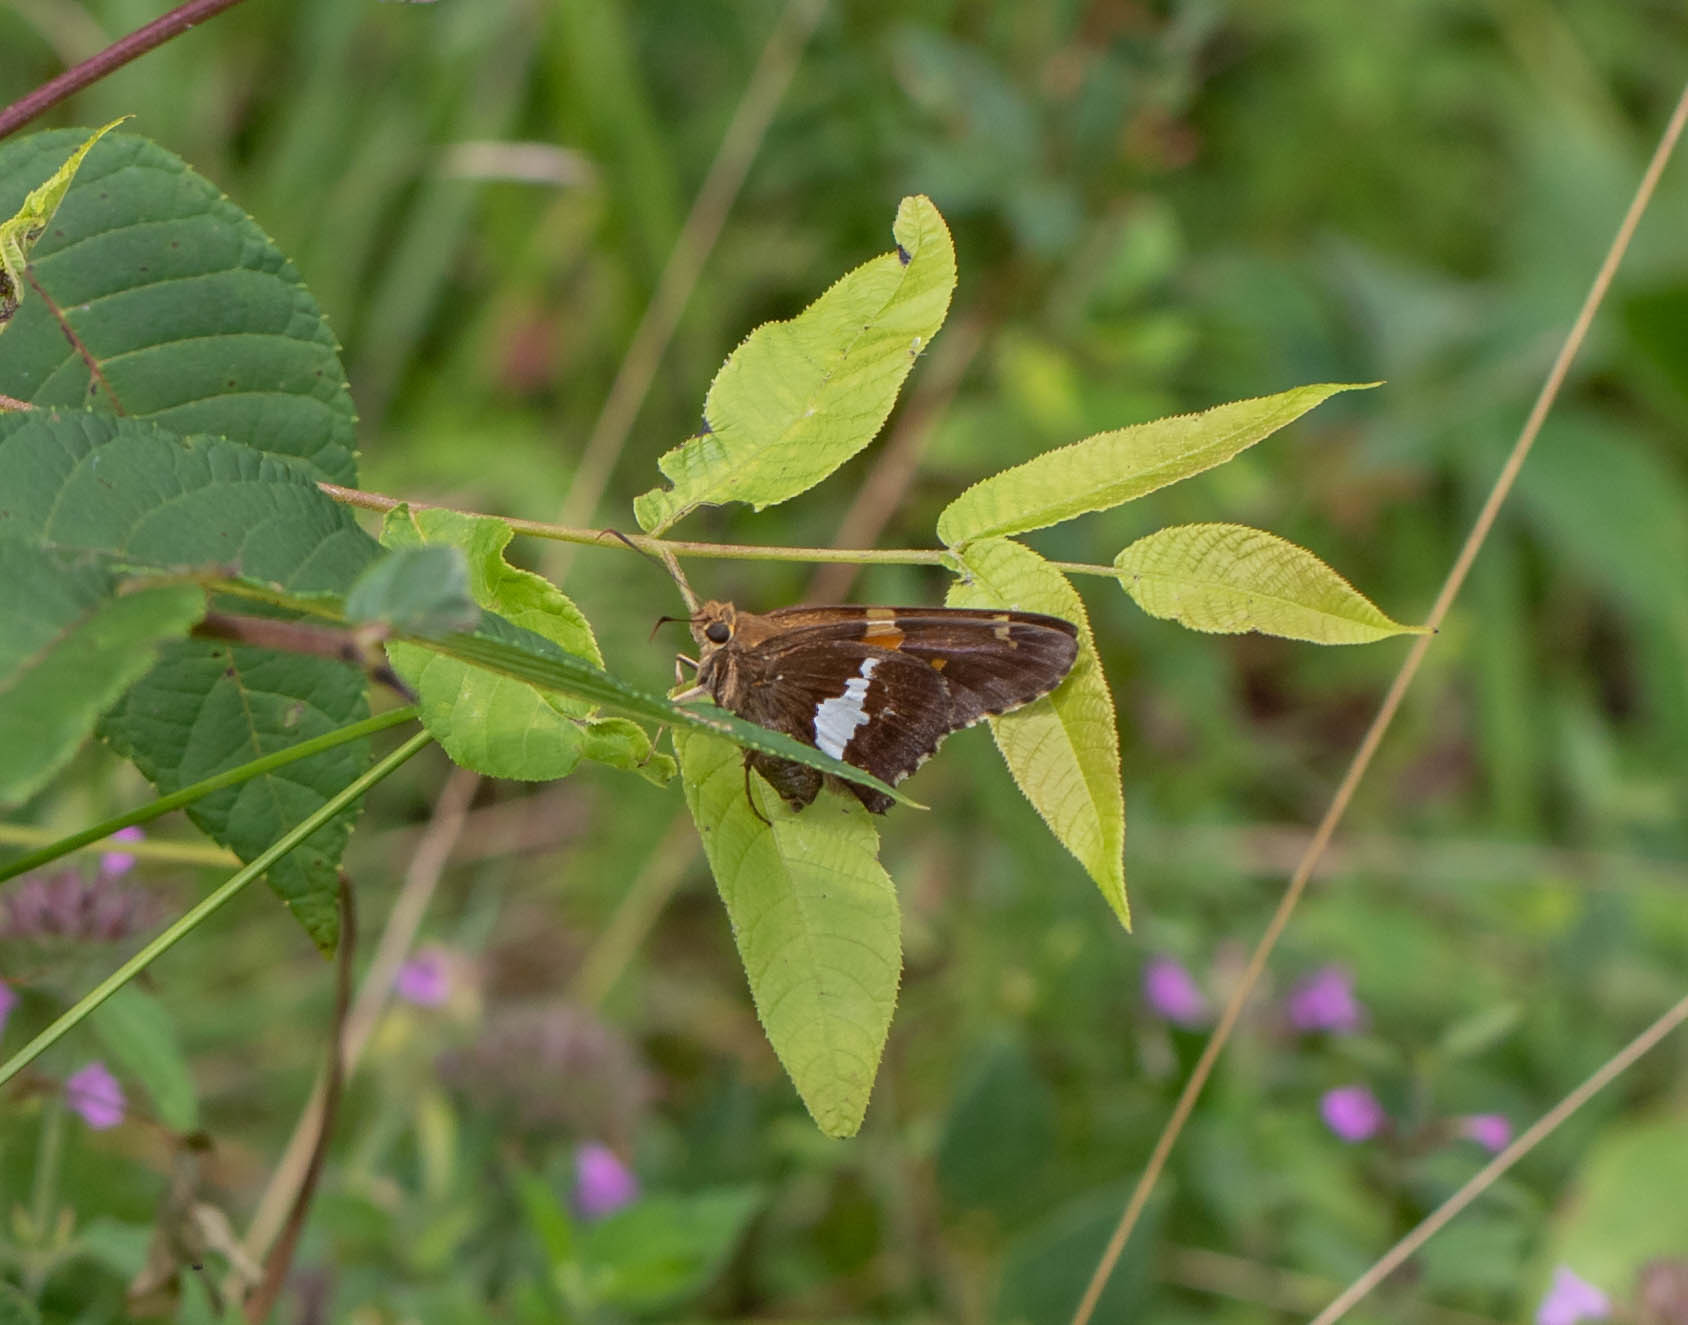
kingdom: Animalia
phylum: Arthropoda
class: Insecta
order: Lepidoptera
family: Hesperiidae
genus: Epargyreus
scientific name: Epargyreus clarus
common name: Silver-spotted skipper
